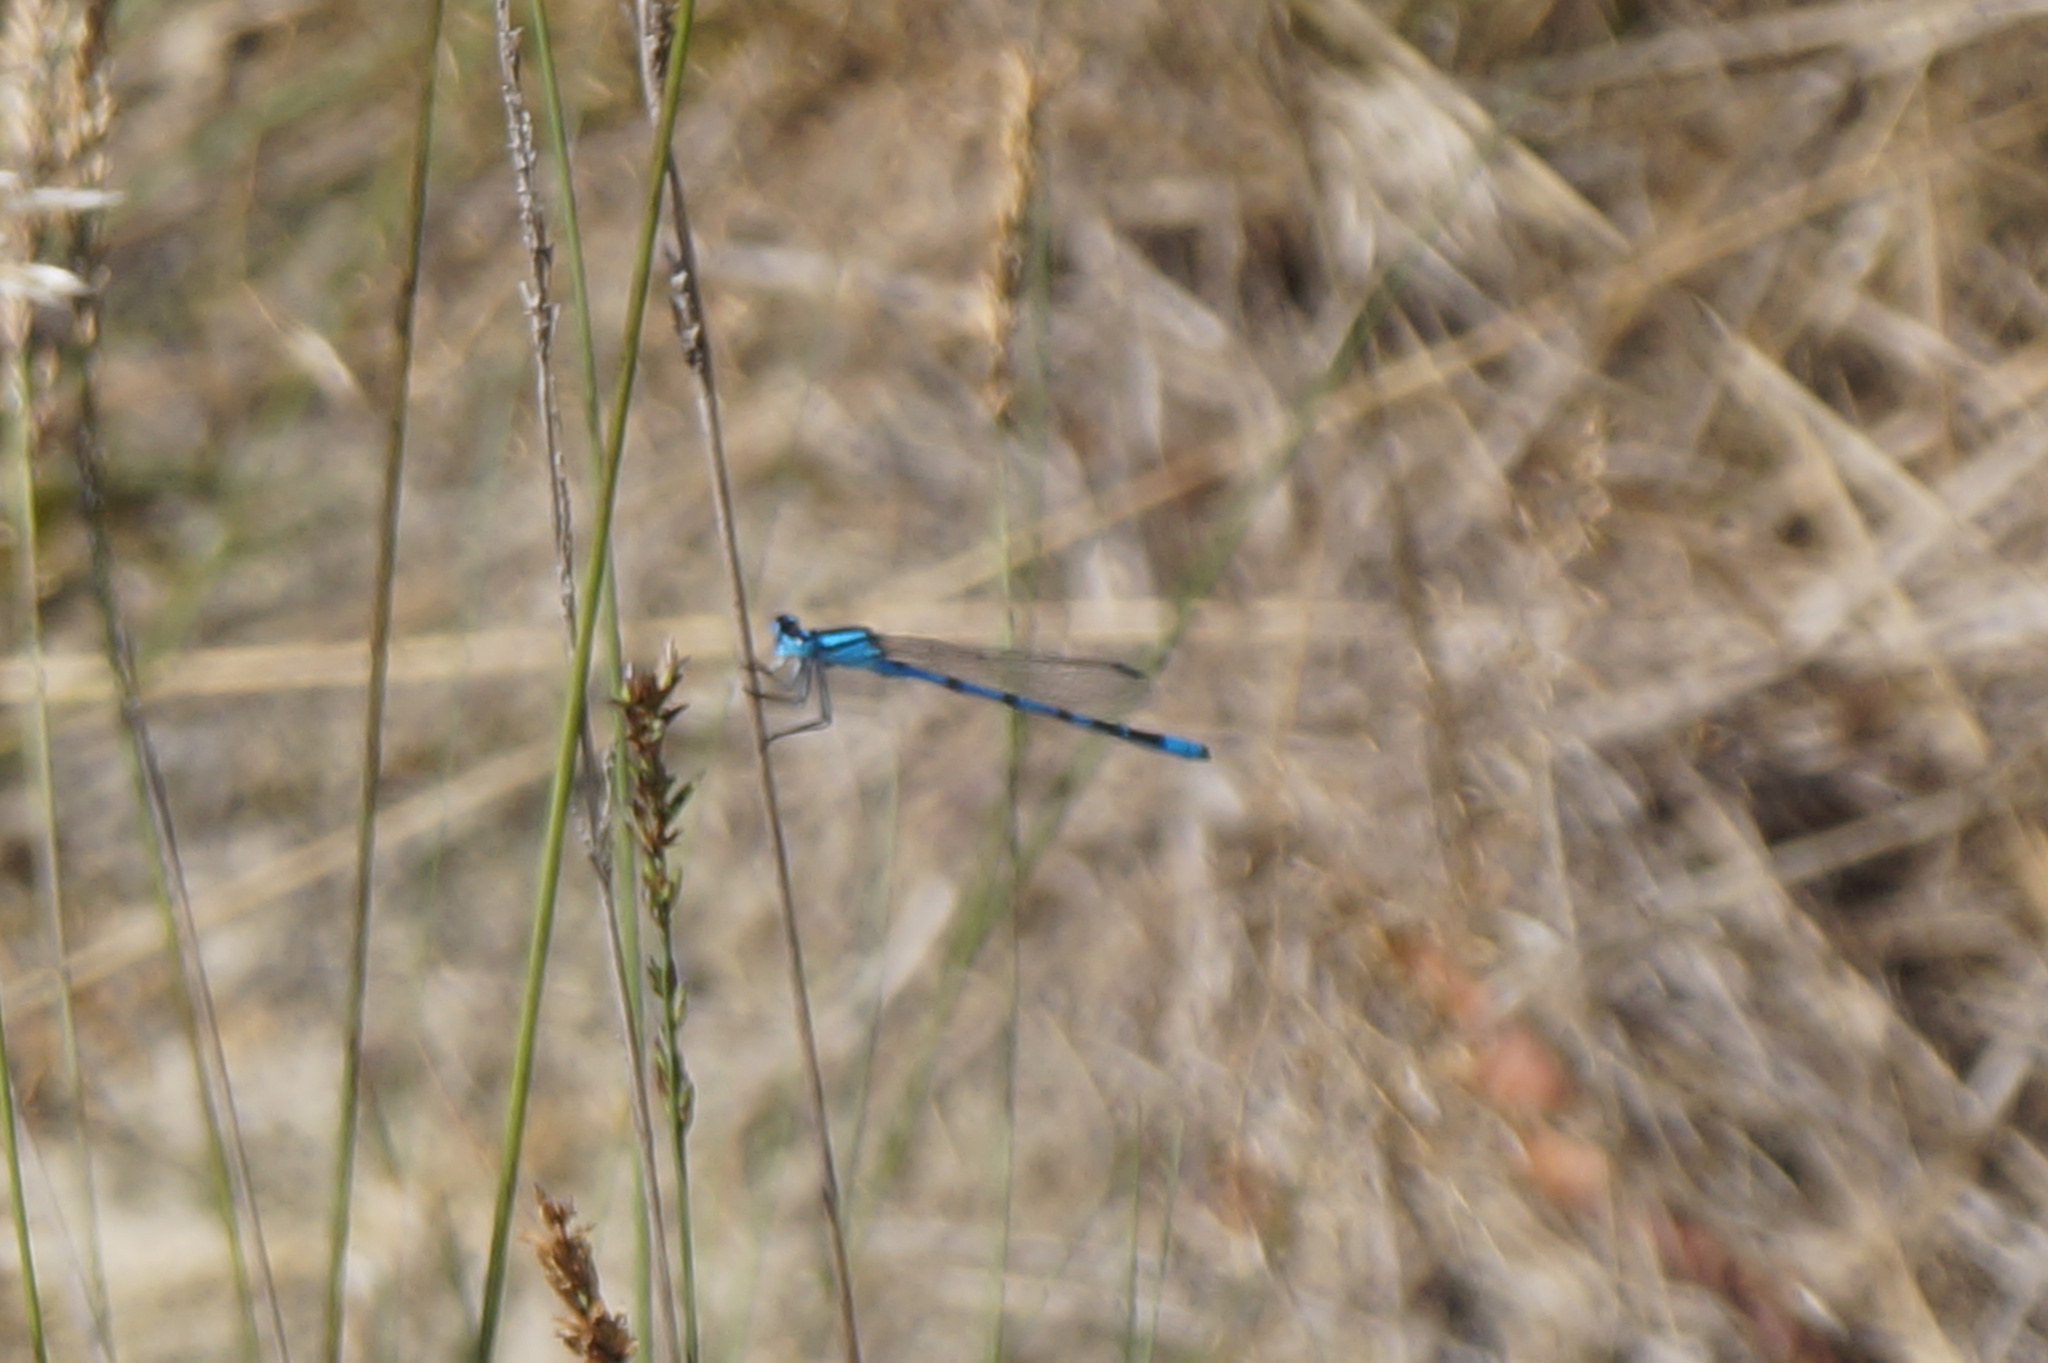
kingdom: Animalia
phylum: Arthropoda
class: Insecta
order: Odonata
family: Coenagrionidae
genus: Enallagma
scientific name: Enallagma cyathigerum
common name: Common blue damselfly
